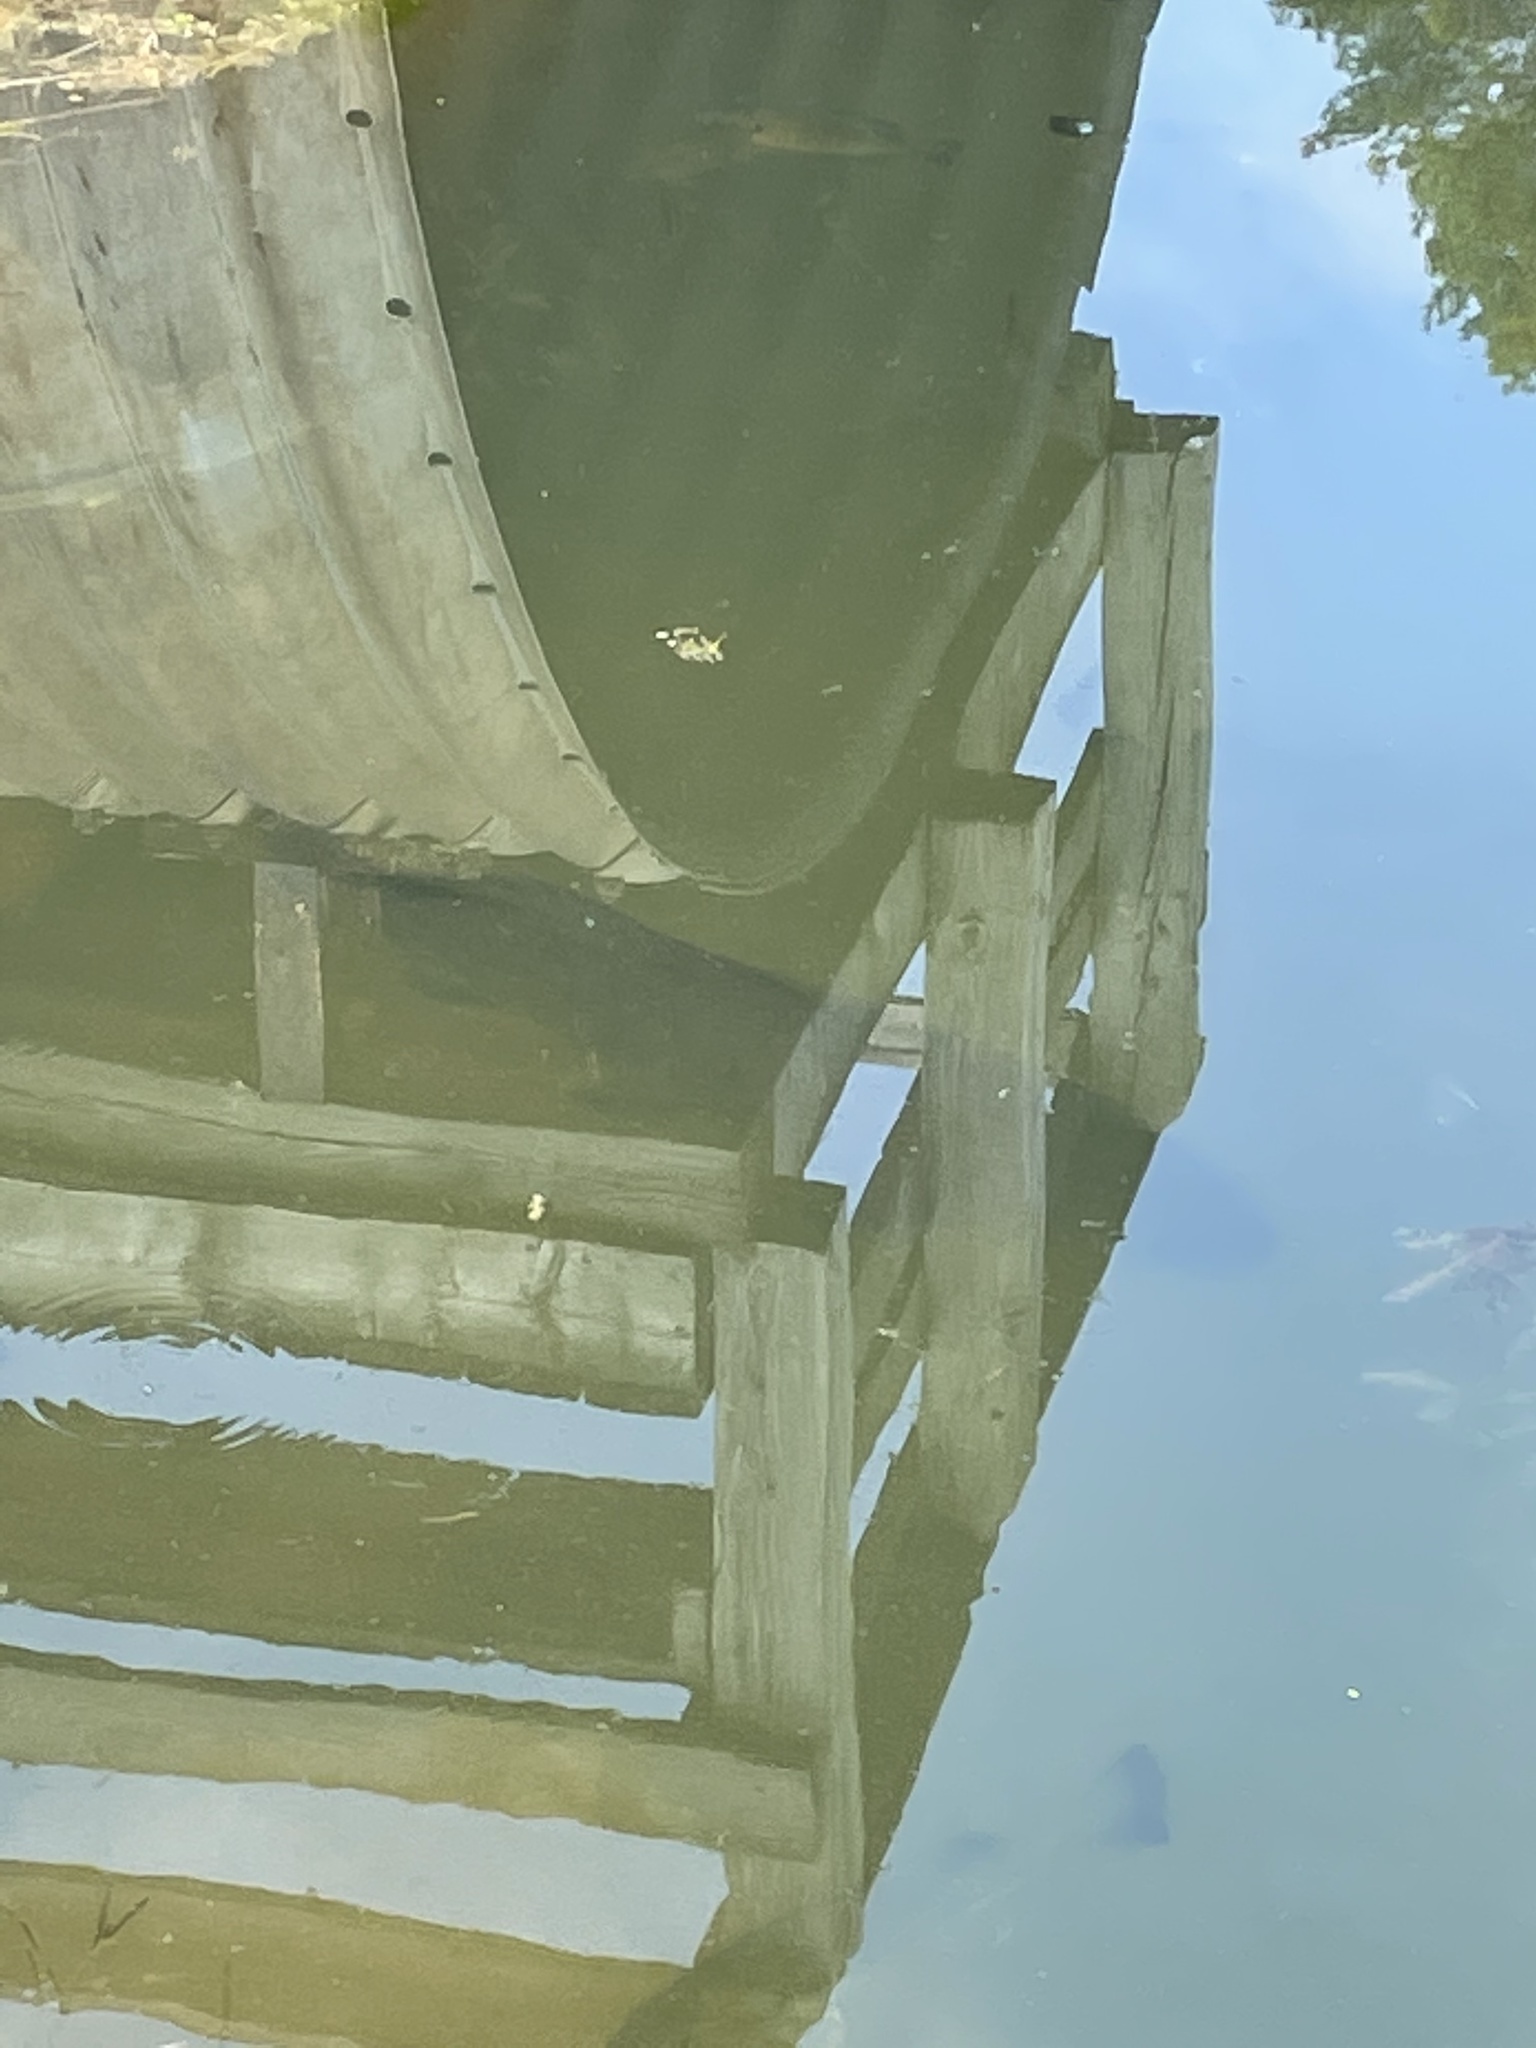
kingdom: Animalia
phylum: Chordata
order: Amiiformes
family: Amiidae
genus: Amia
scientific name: Amia calva
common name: Bowfin
